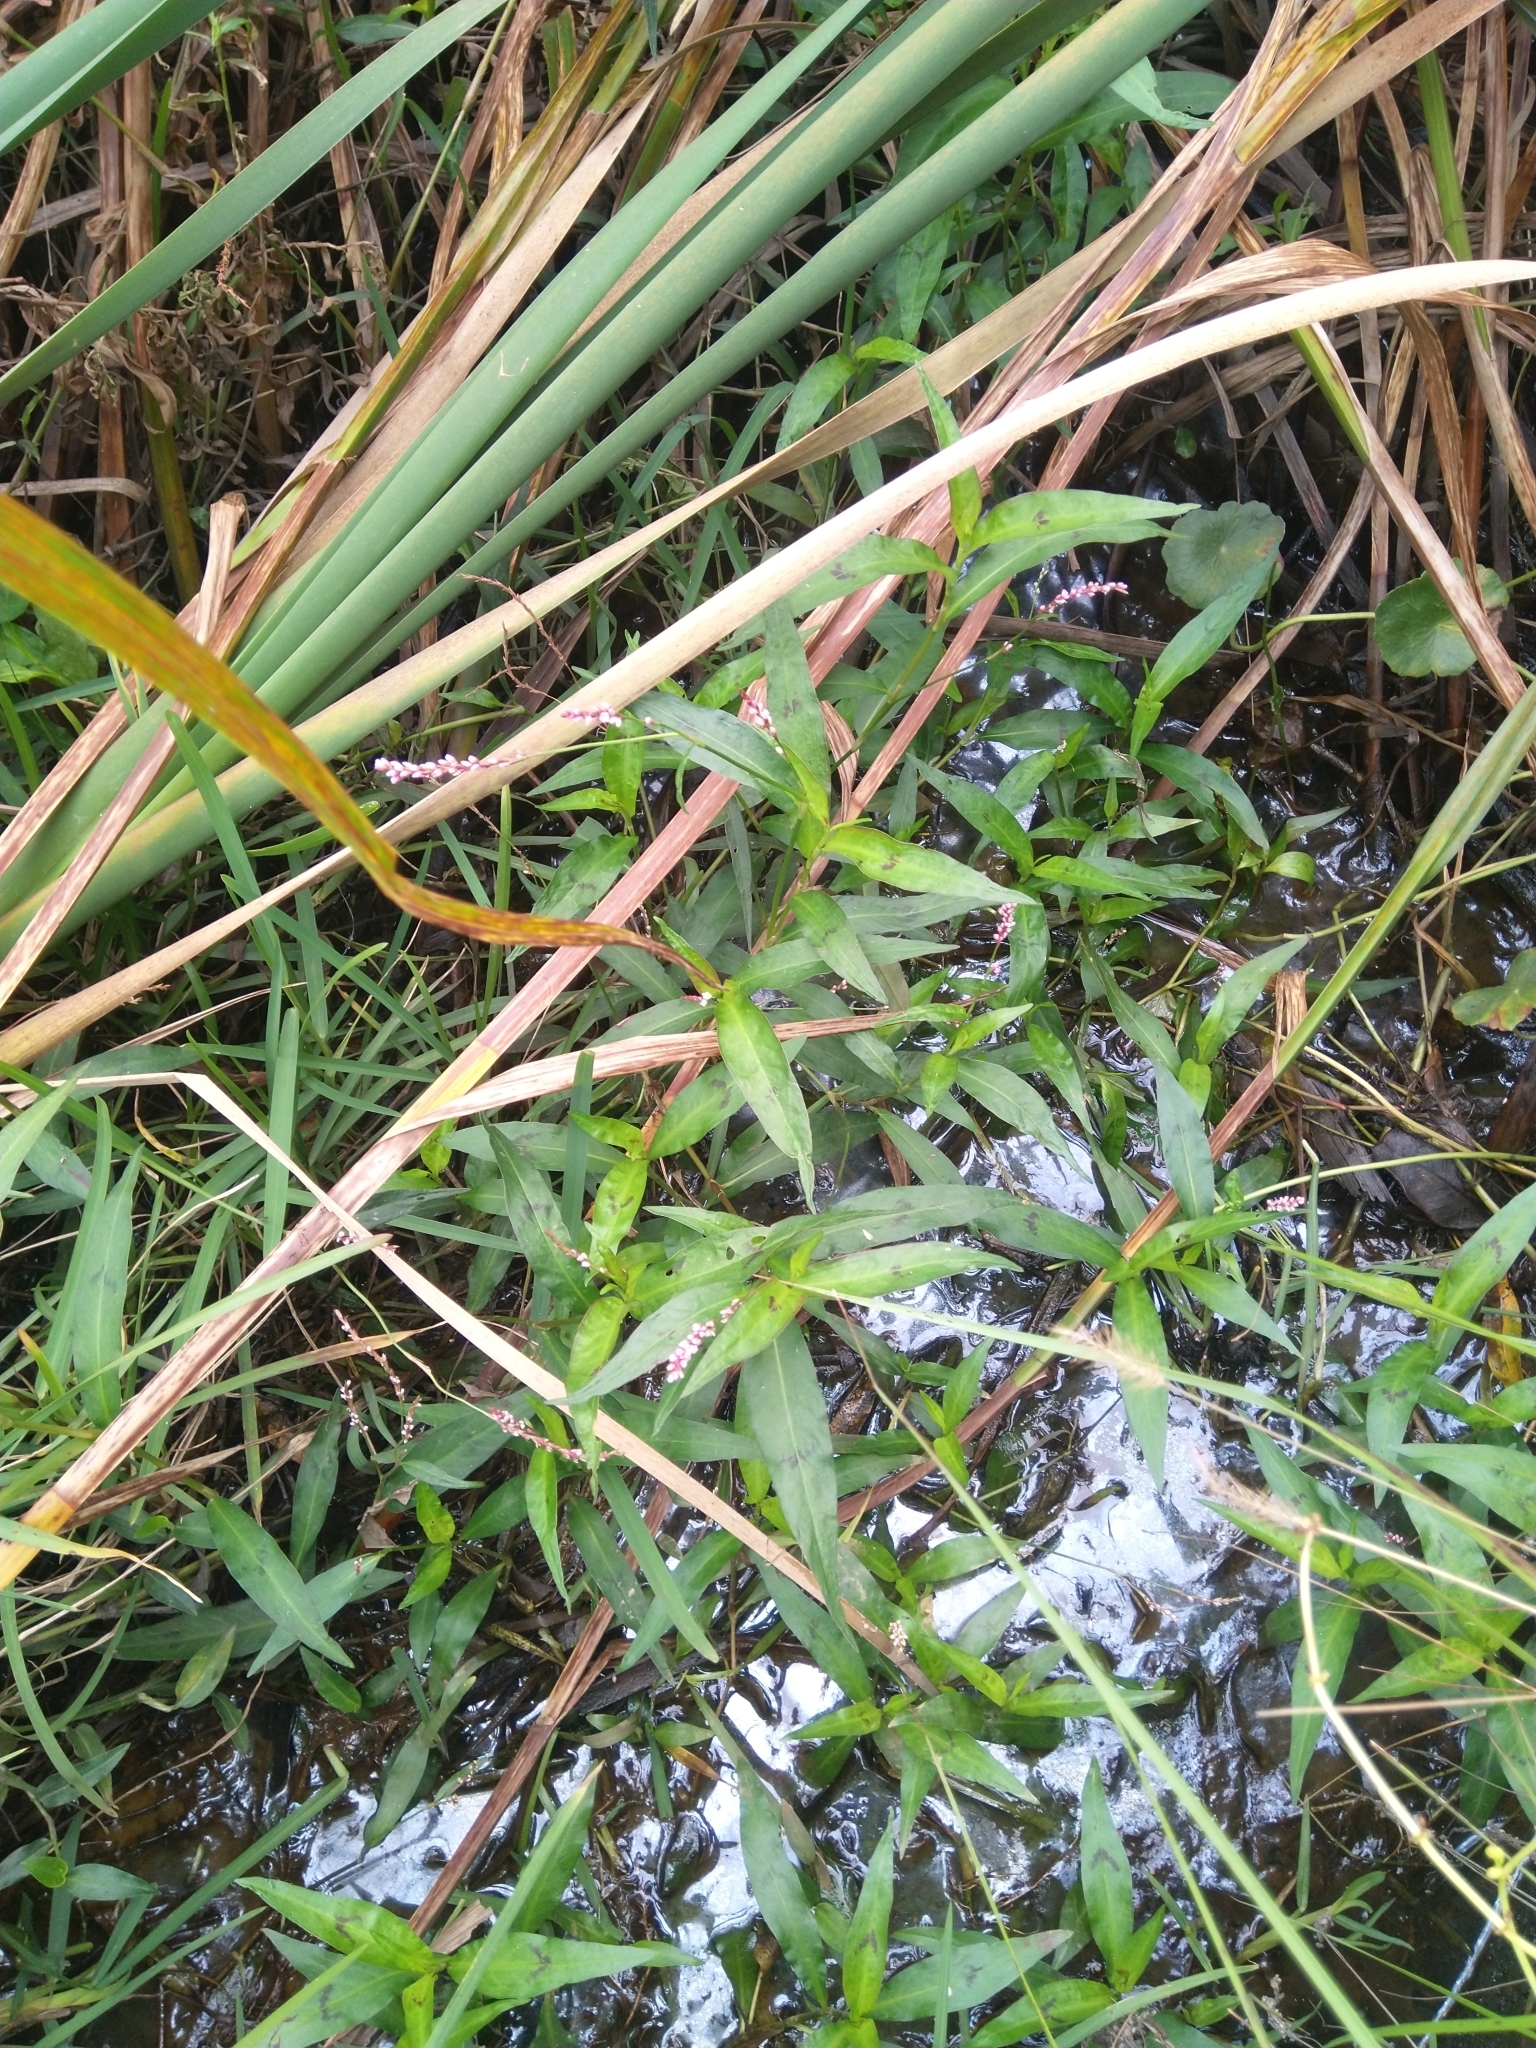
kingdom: Plantae
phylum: Tracheophyta
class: Magnoliopsida
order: Caryophyllales
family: Polygonaceae
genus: Persicaria
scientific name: Persicaria decipiens
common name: Willow-weed
